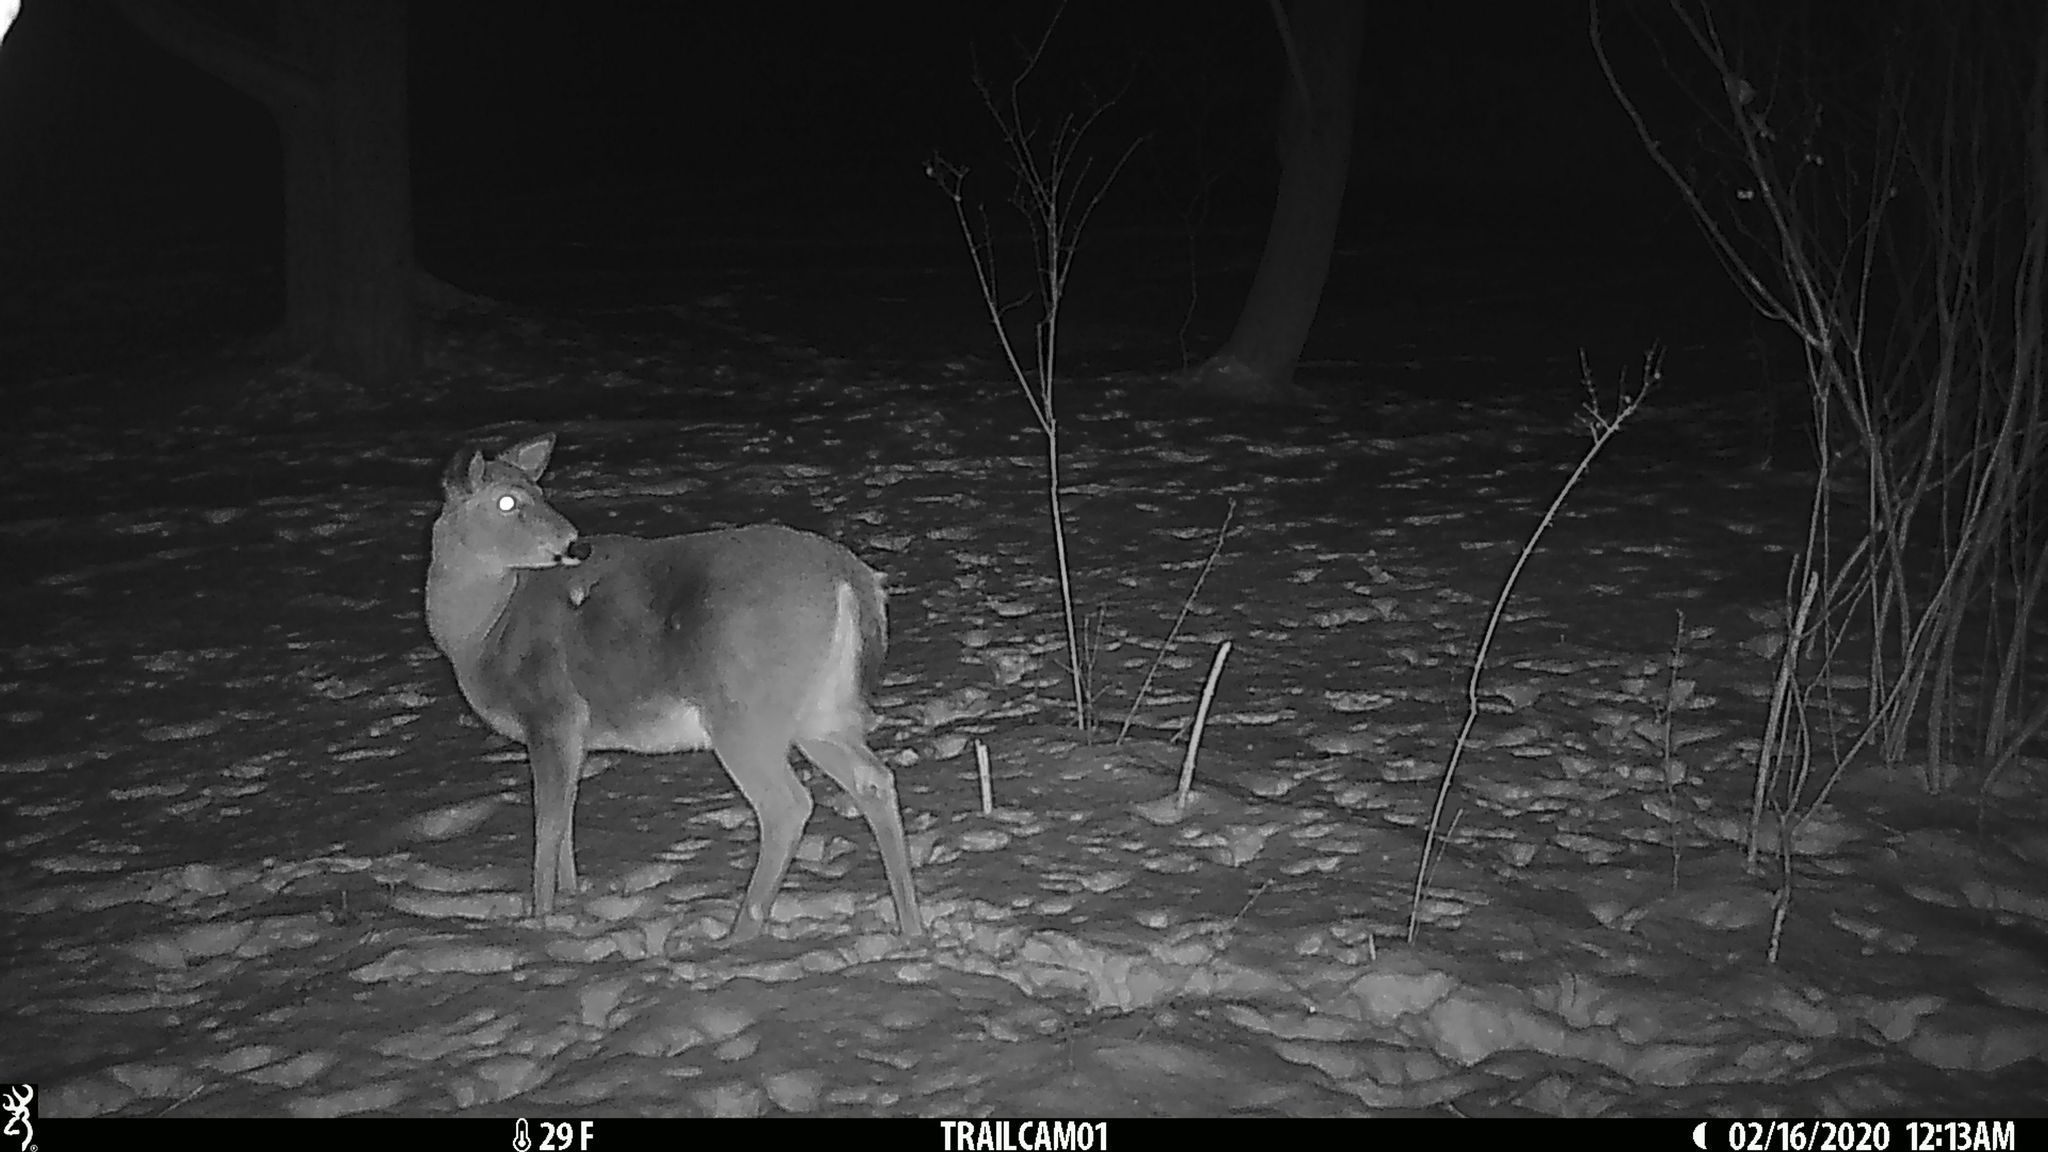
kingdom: Animalia
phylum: Chordata
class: Mammalia
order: Artiodactyla
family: Cervidae
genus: Odocoileus
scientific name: Odocoileus virginianus
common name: White-tailed deer
